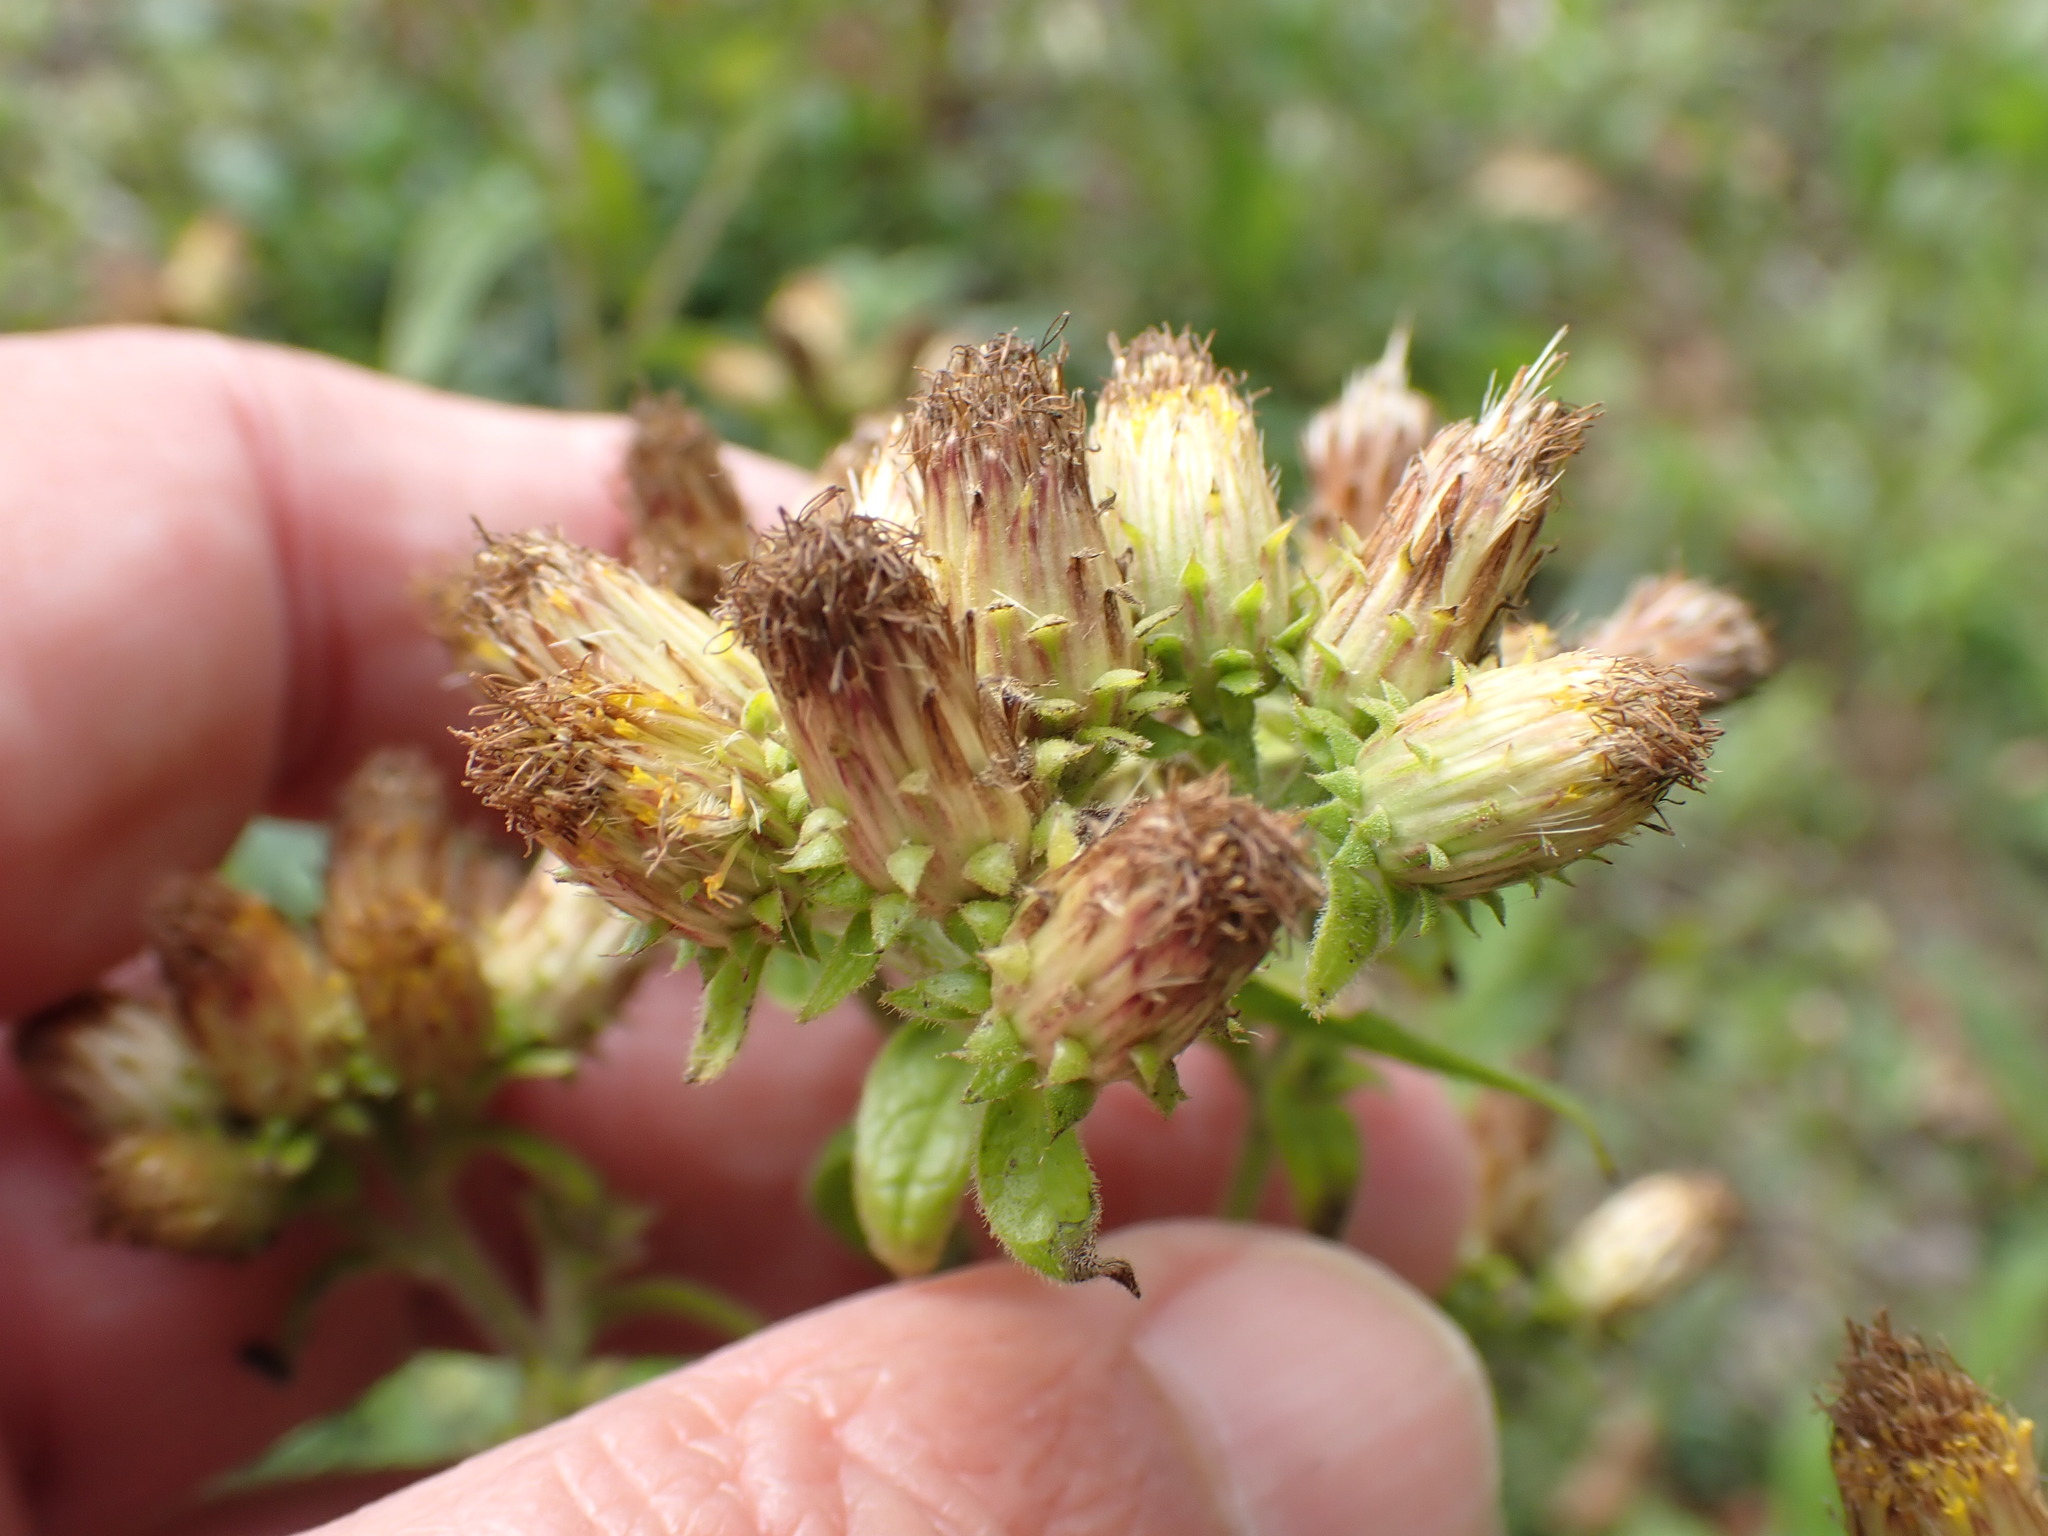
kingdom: Plantae
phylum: Tracheophyta
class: Magnoliopsida
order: Asterales
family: Asteraceae
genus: Pentanema
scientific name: Pentanema squarrosum
